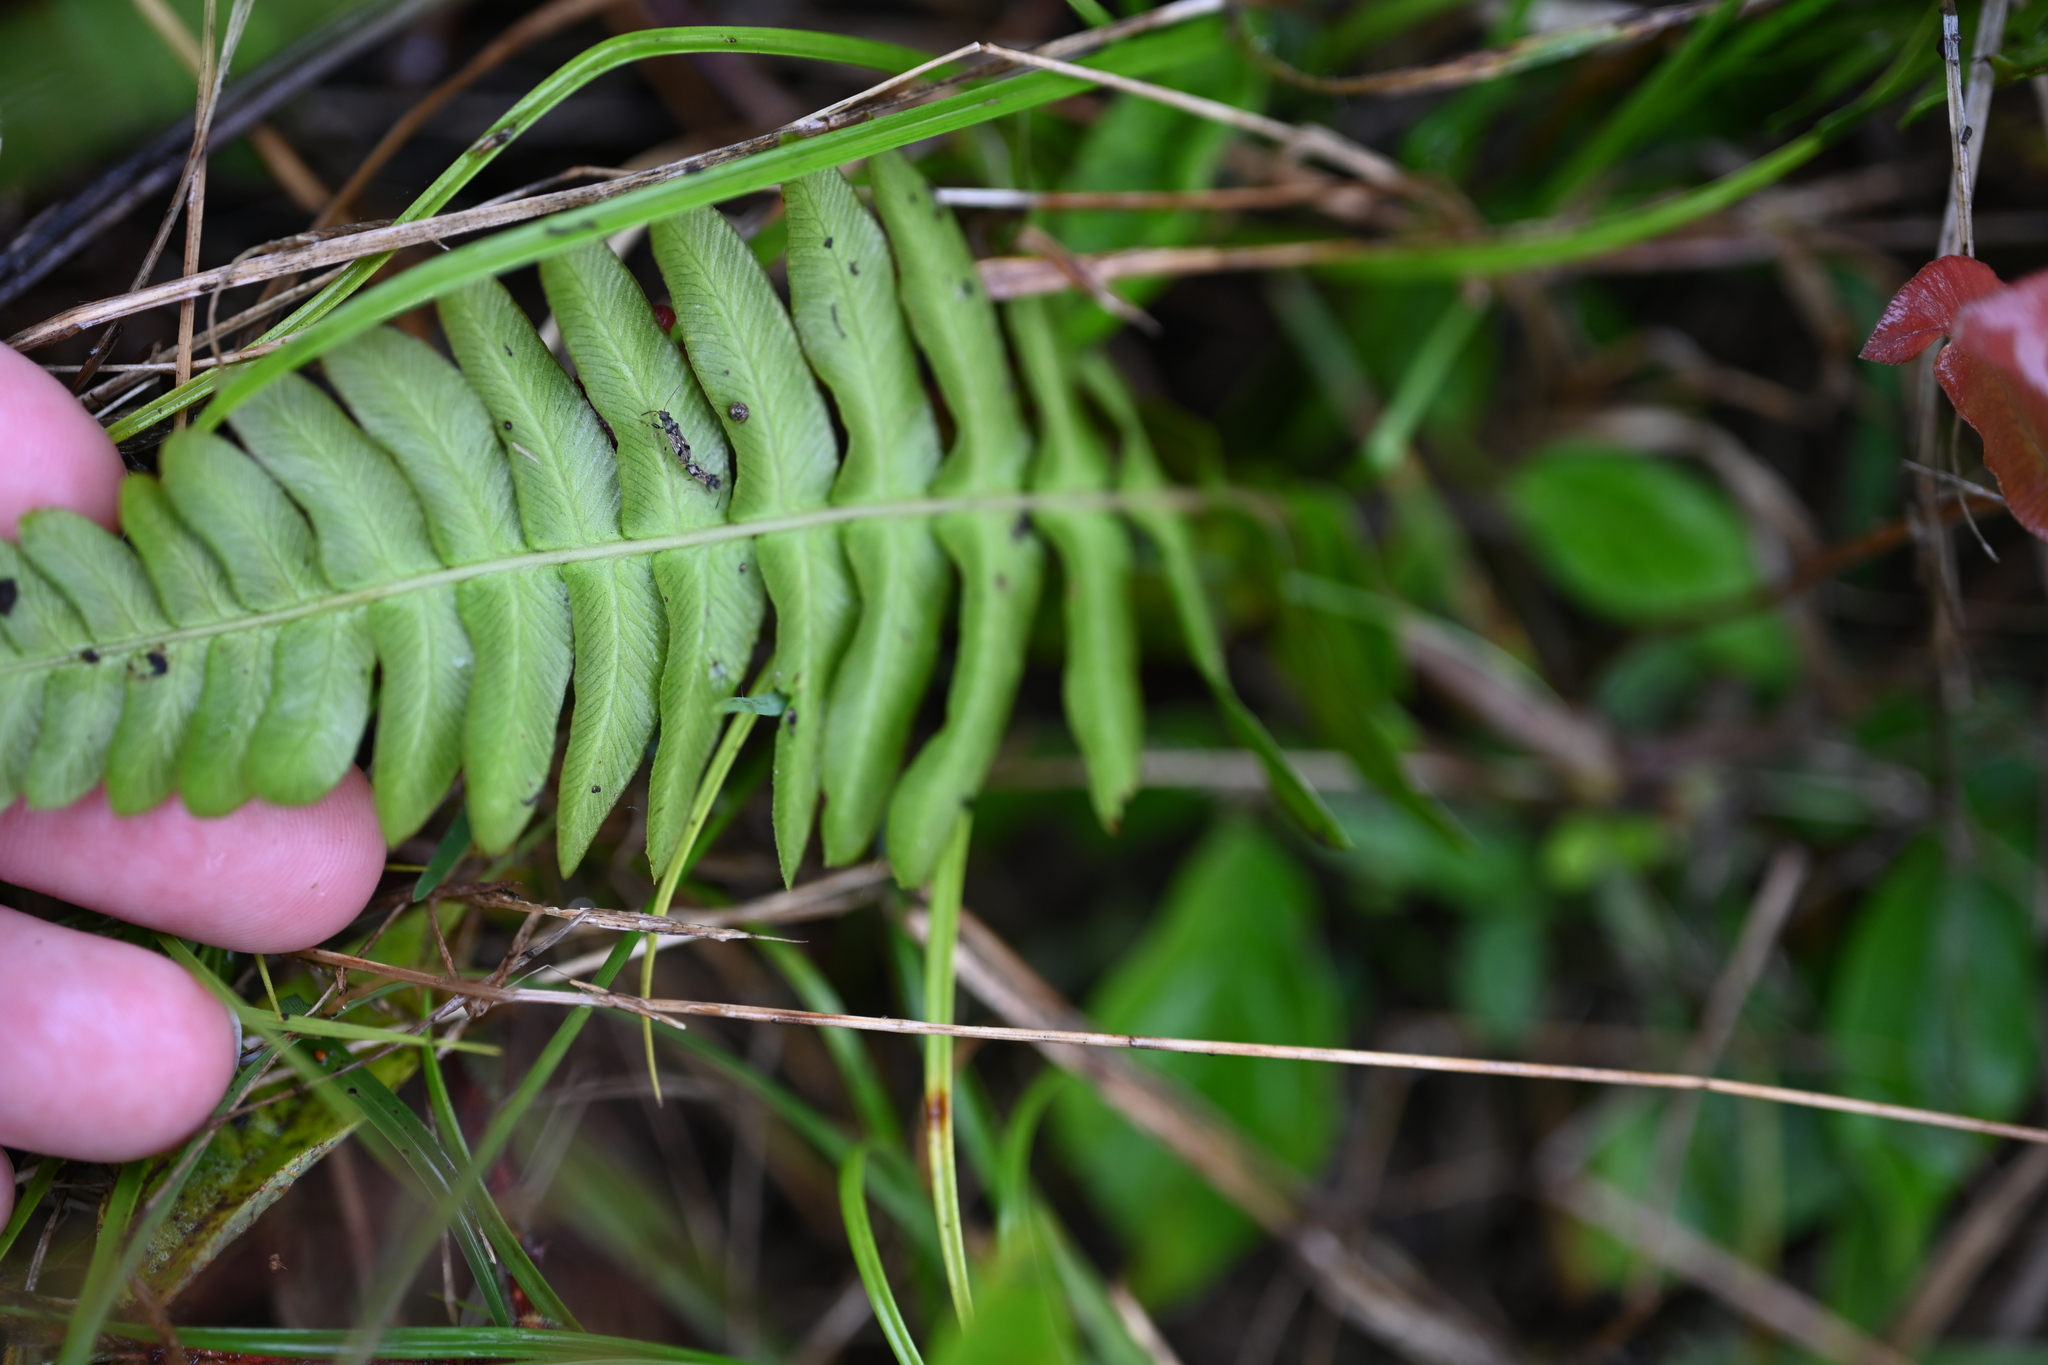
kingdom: Plantae
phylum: Tracheophyta
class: Polypodiopsida
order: Polypodiales
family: Blechnaceae
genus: Blechnum
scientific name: Blechnum occidentale
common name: Hammock fern
